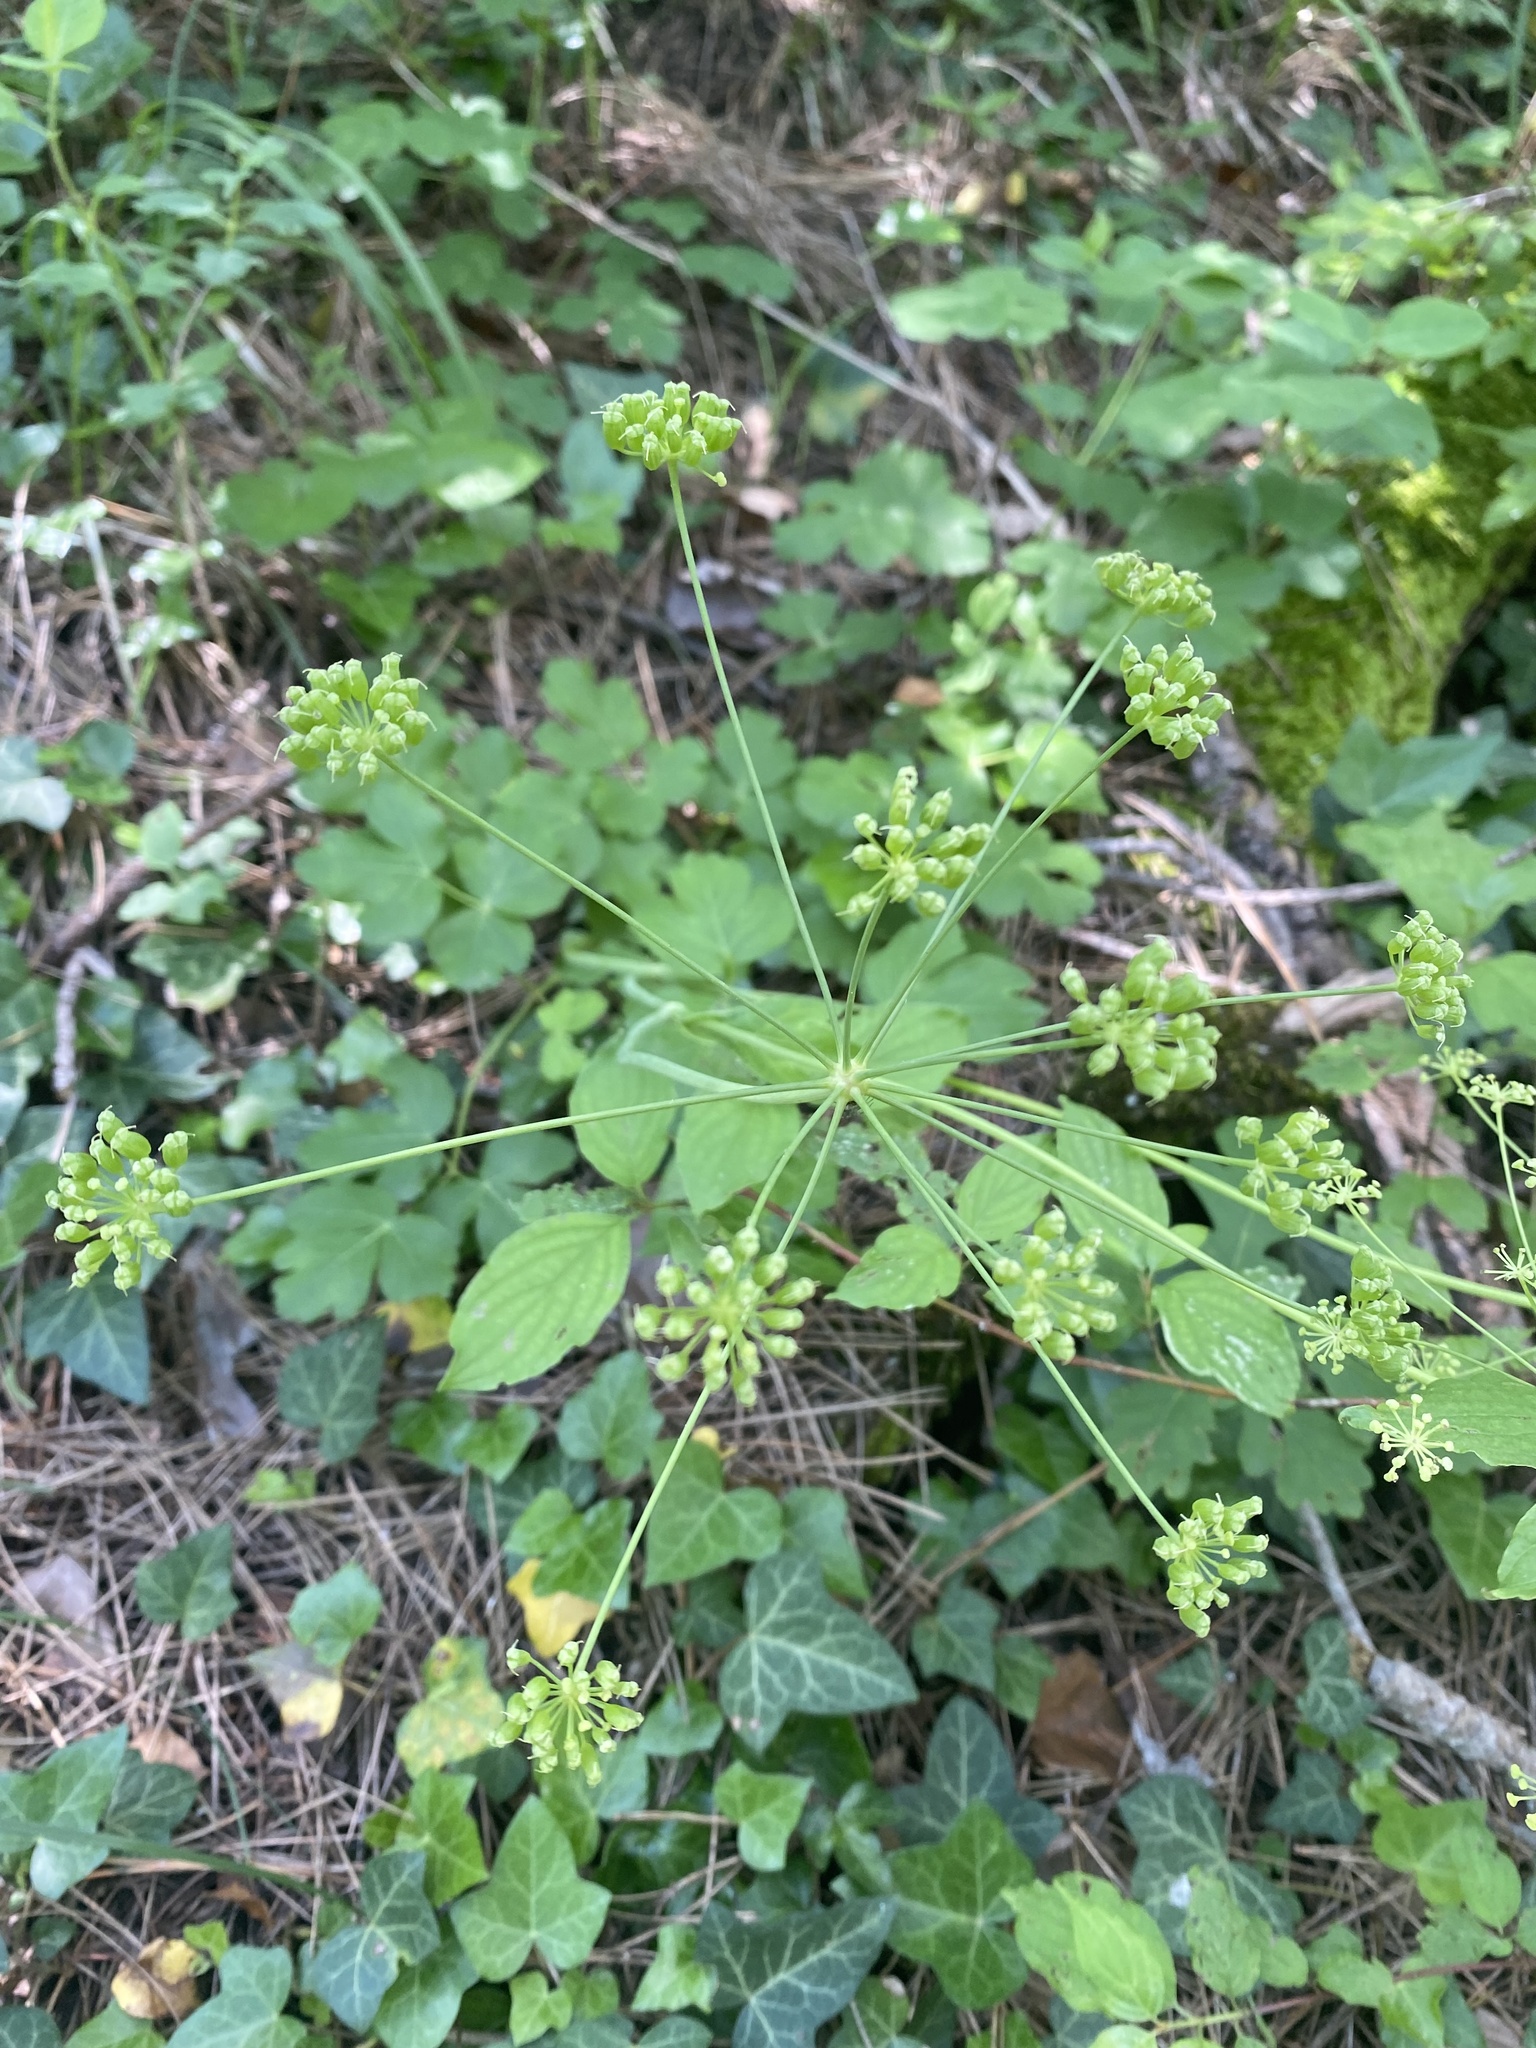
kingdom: Plantae
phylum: Tracheophyta
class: Magnoliopsida
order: Apiales
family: Apiaceae
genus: Laser
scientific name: Laser trilobum
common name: Laser
